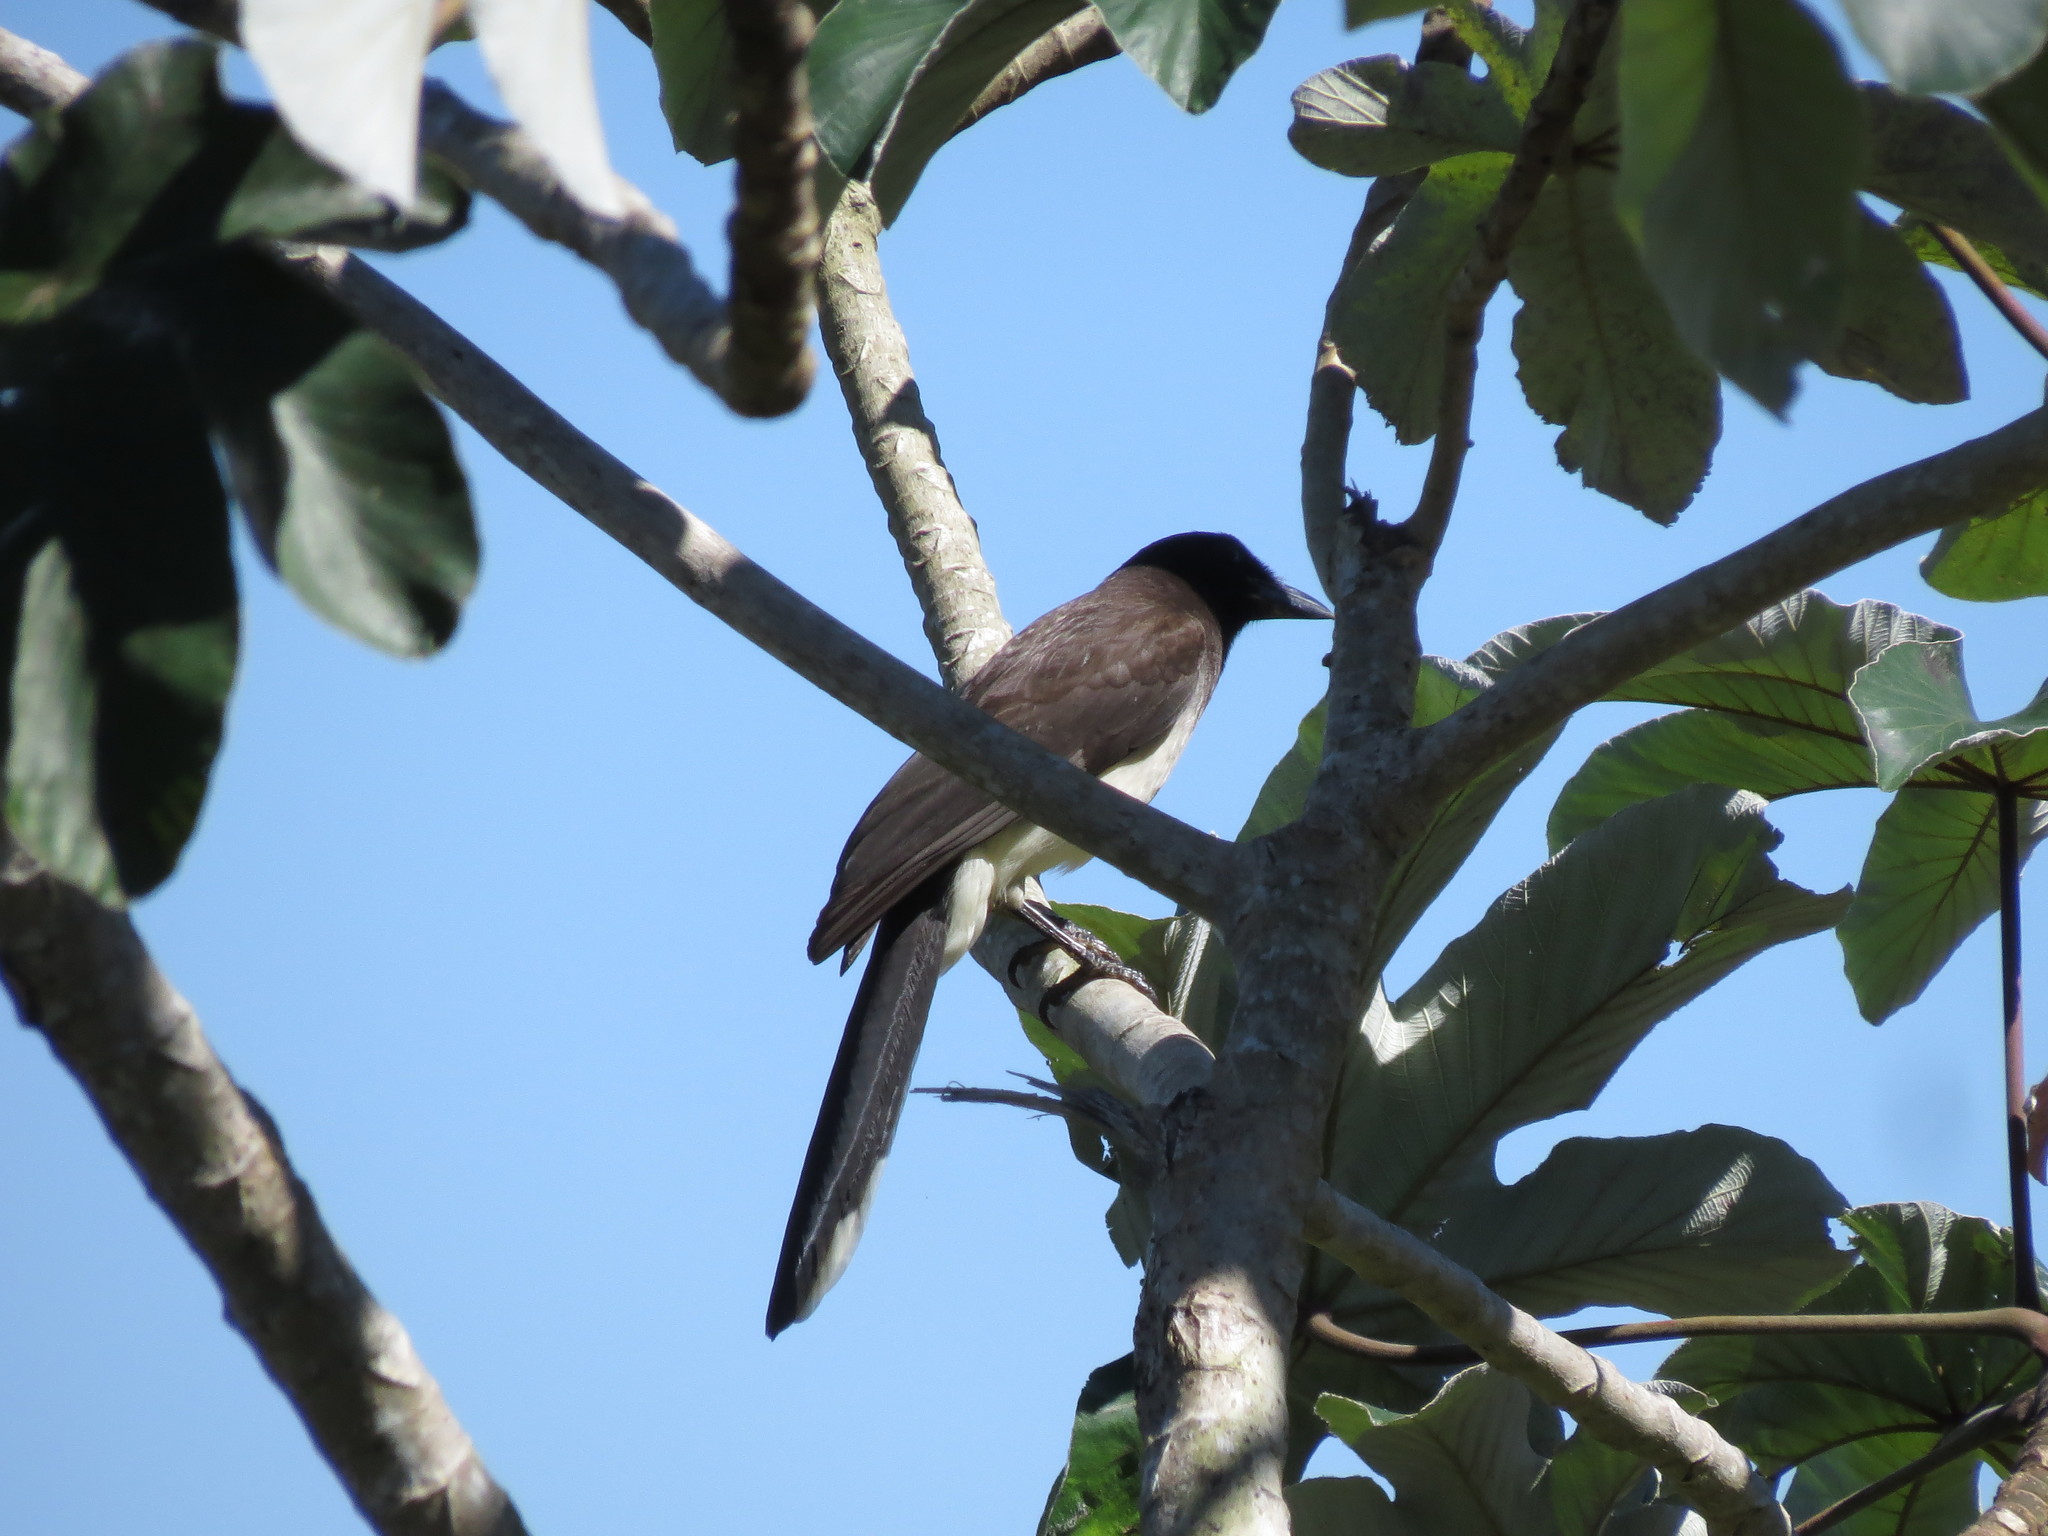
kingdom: Animalia
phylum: Chordata
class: Aves
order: Passeriformes
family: Corvidae
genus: Psilorhinus
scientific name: Psilorhinus morio
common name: Brown jay
